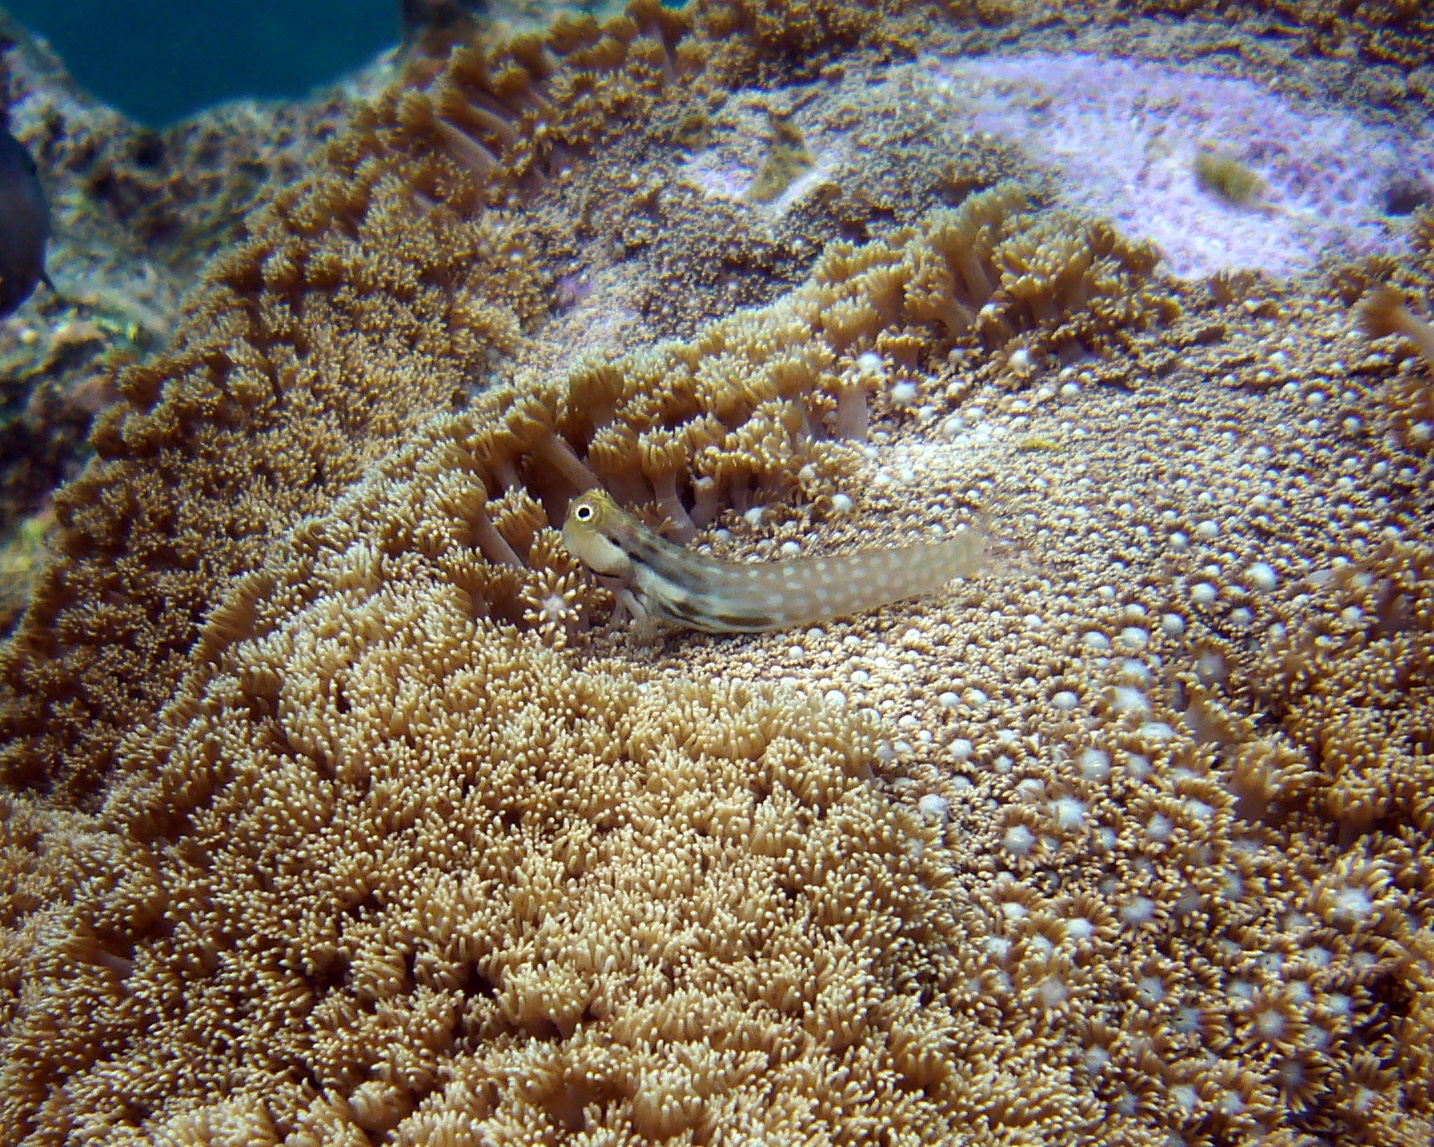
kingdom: Animalia
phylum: Chordata
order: Perciformes
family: Blenniidae
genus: Ecsenius
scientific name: Ecsenius yaeyamaensis
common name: Pale-spotted combtooth-blenny
